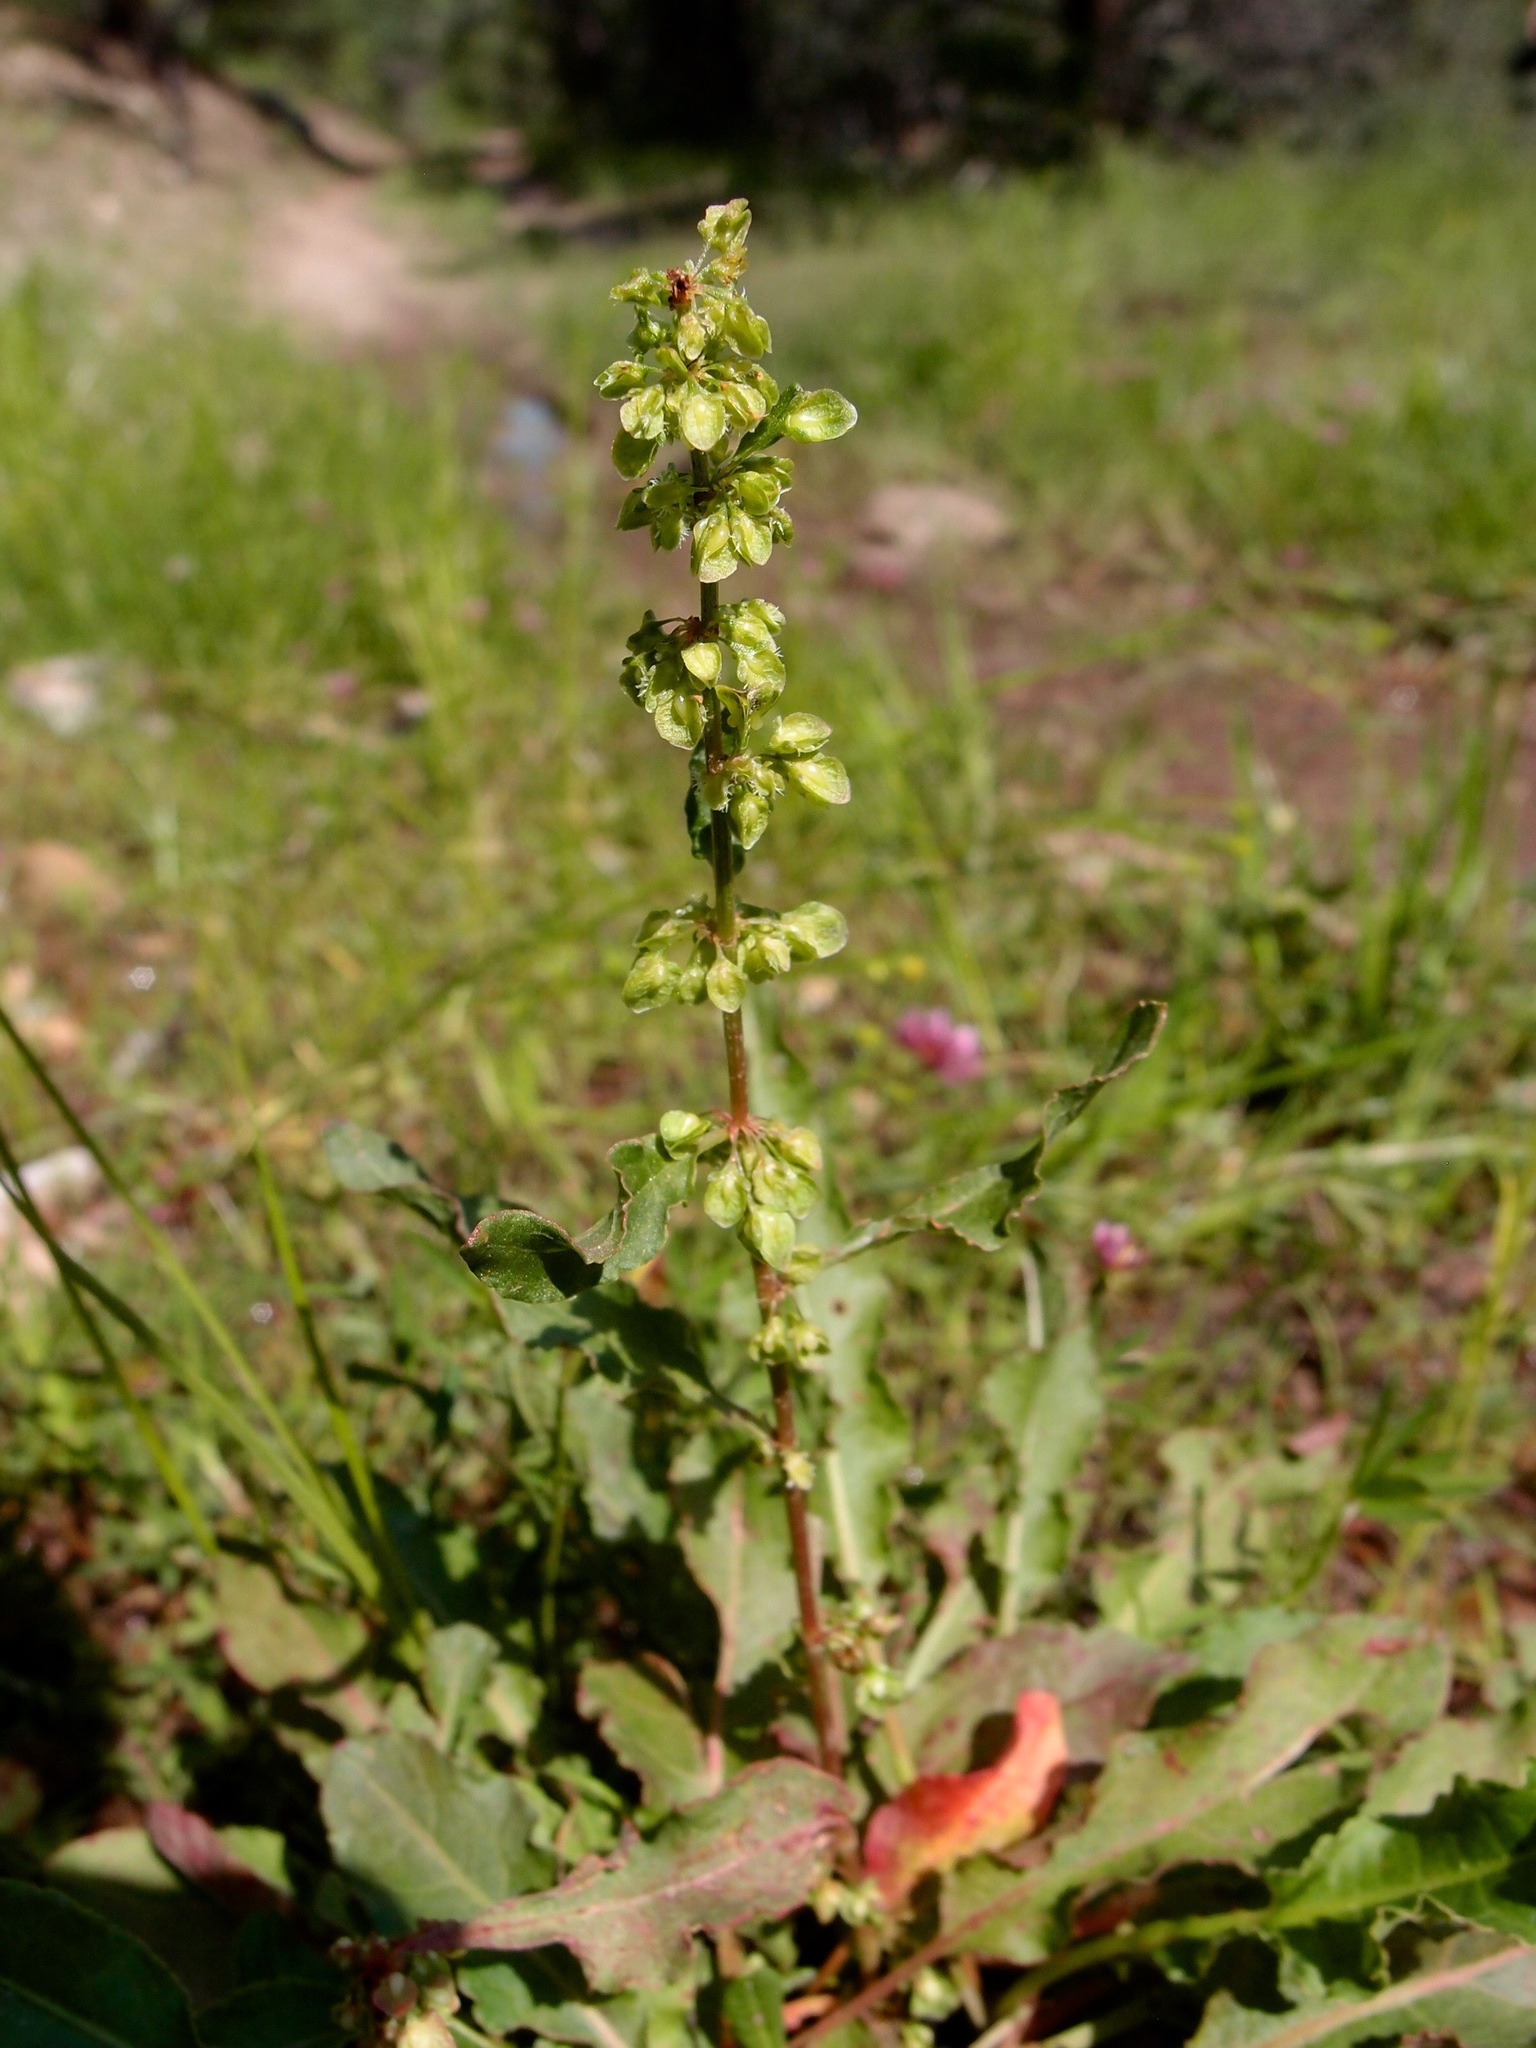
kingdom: Plantae
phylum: Tracheophyta
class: Magnoliopsida
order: Caryophyllales
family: Polygonaceae
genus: Rumex
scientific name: Rumex crispus
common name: Curled dock
